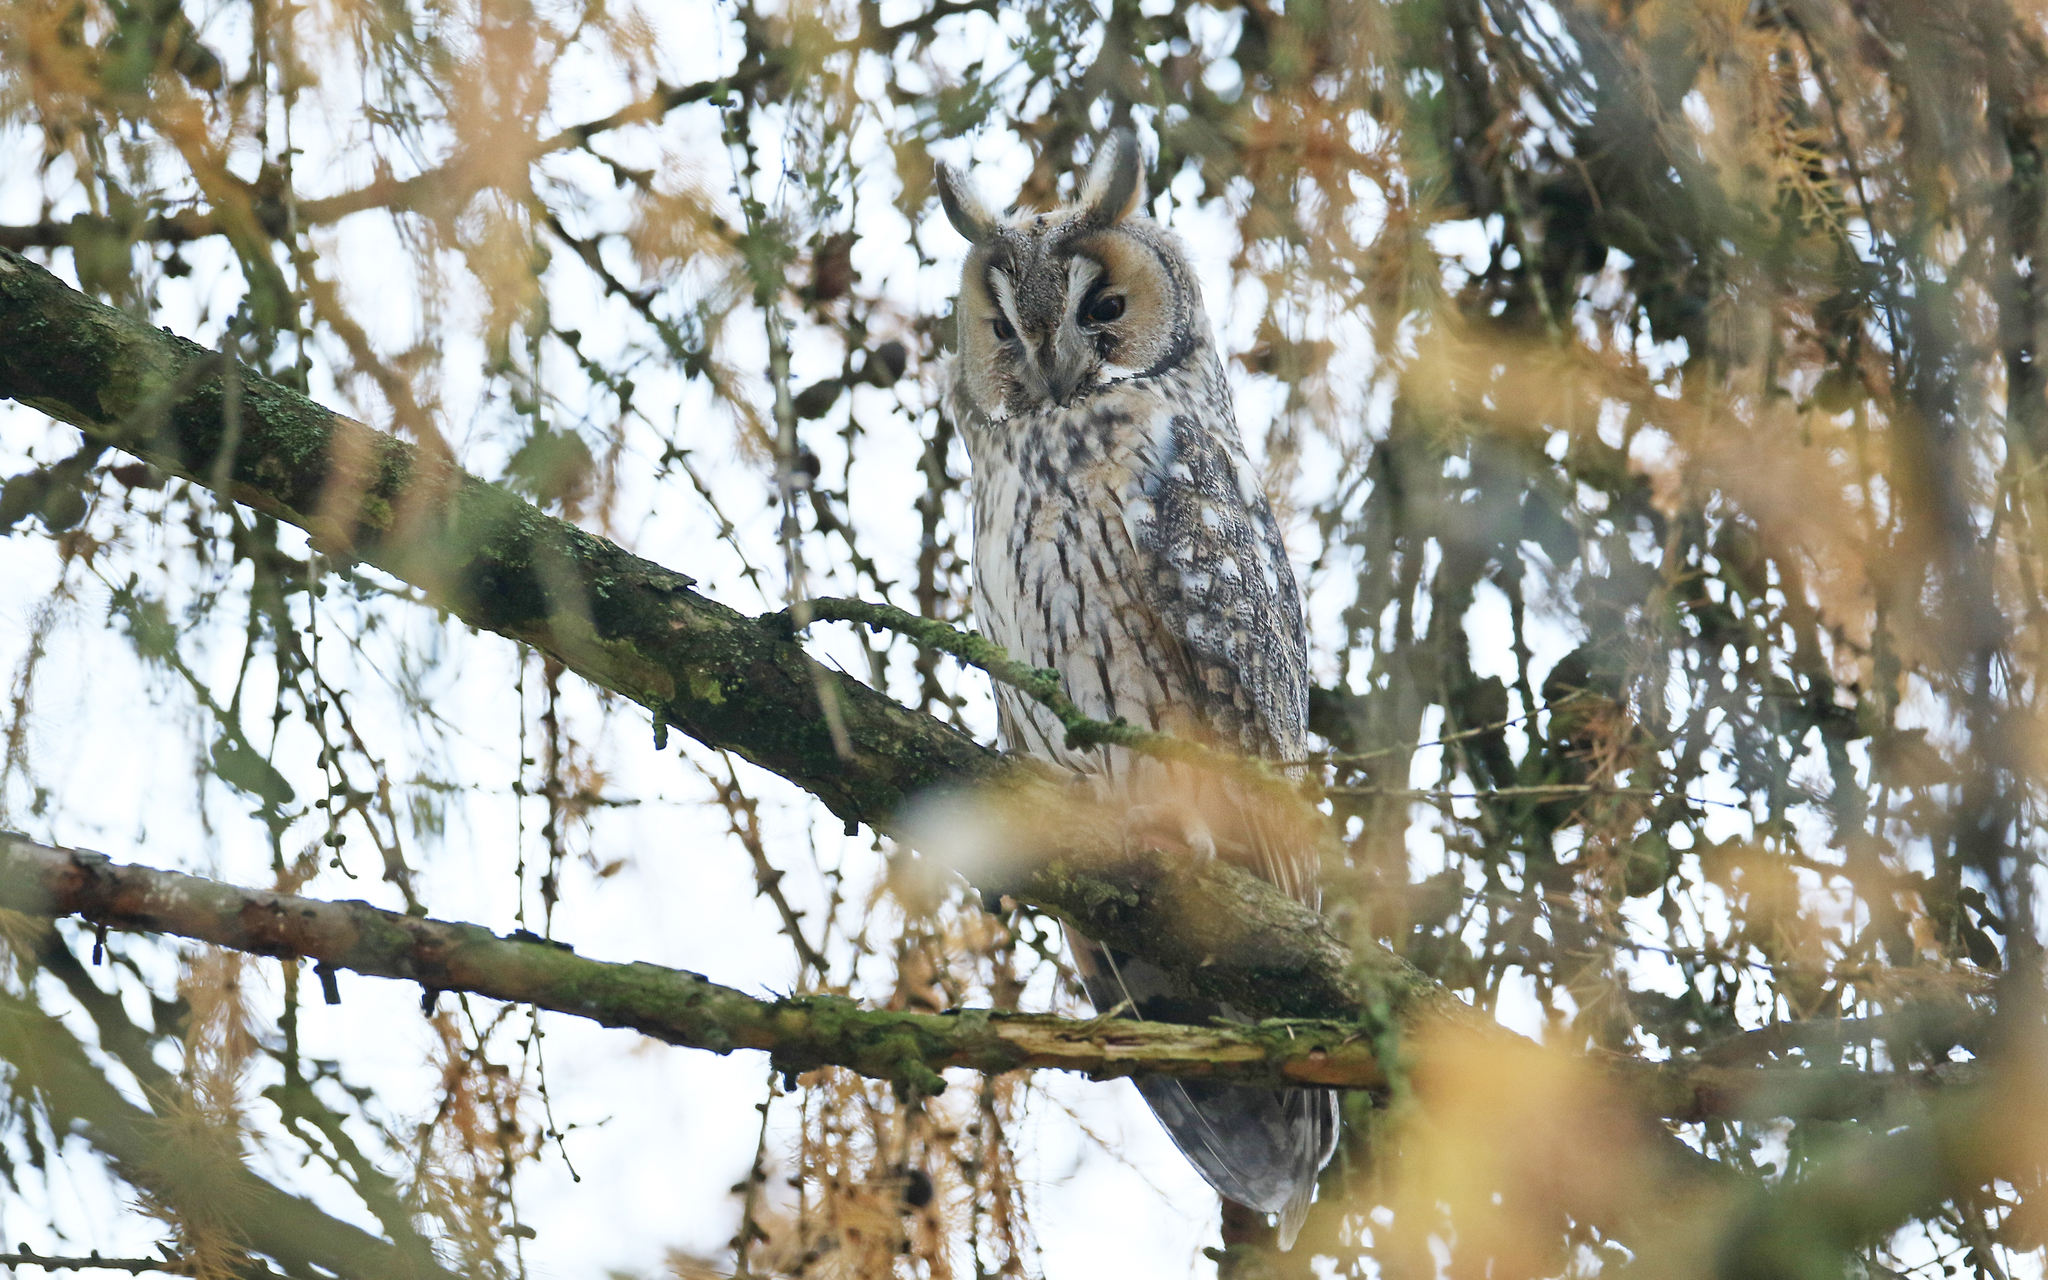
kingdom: Animalia
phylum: Chordata
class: Aves
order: Strigiformes
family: Strigidae
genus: Asio
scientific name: Asio otus
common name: Long-eared owl
